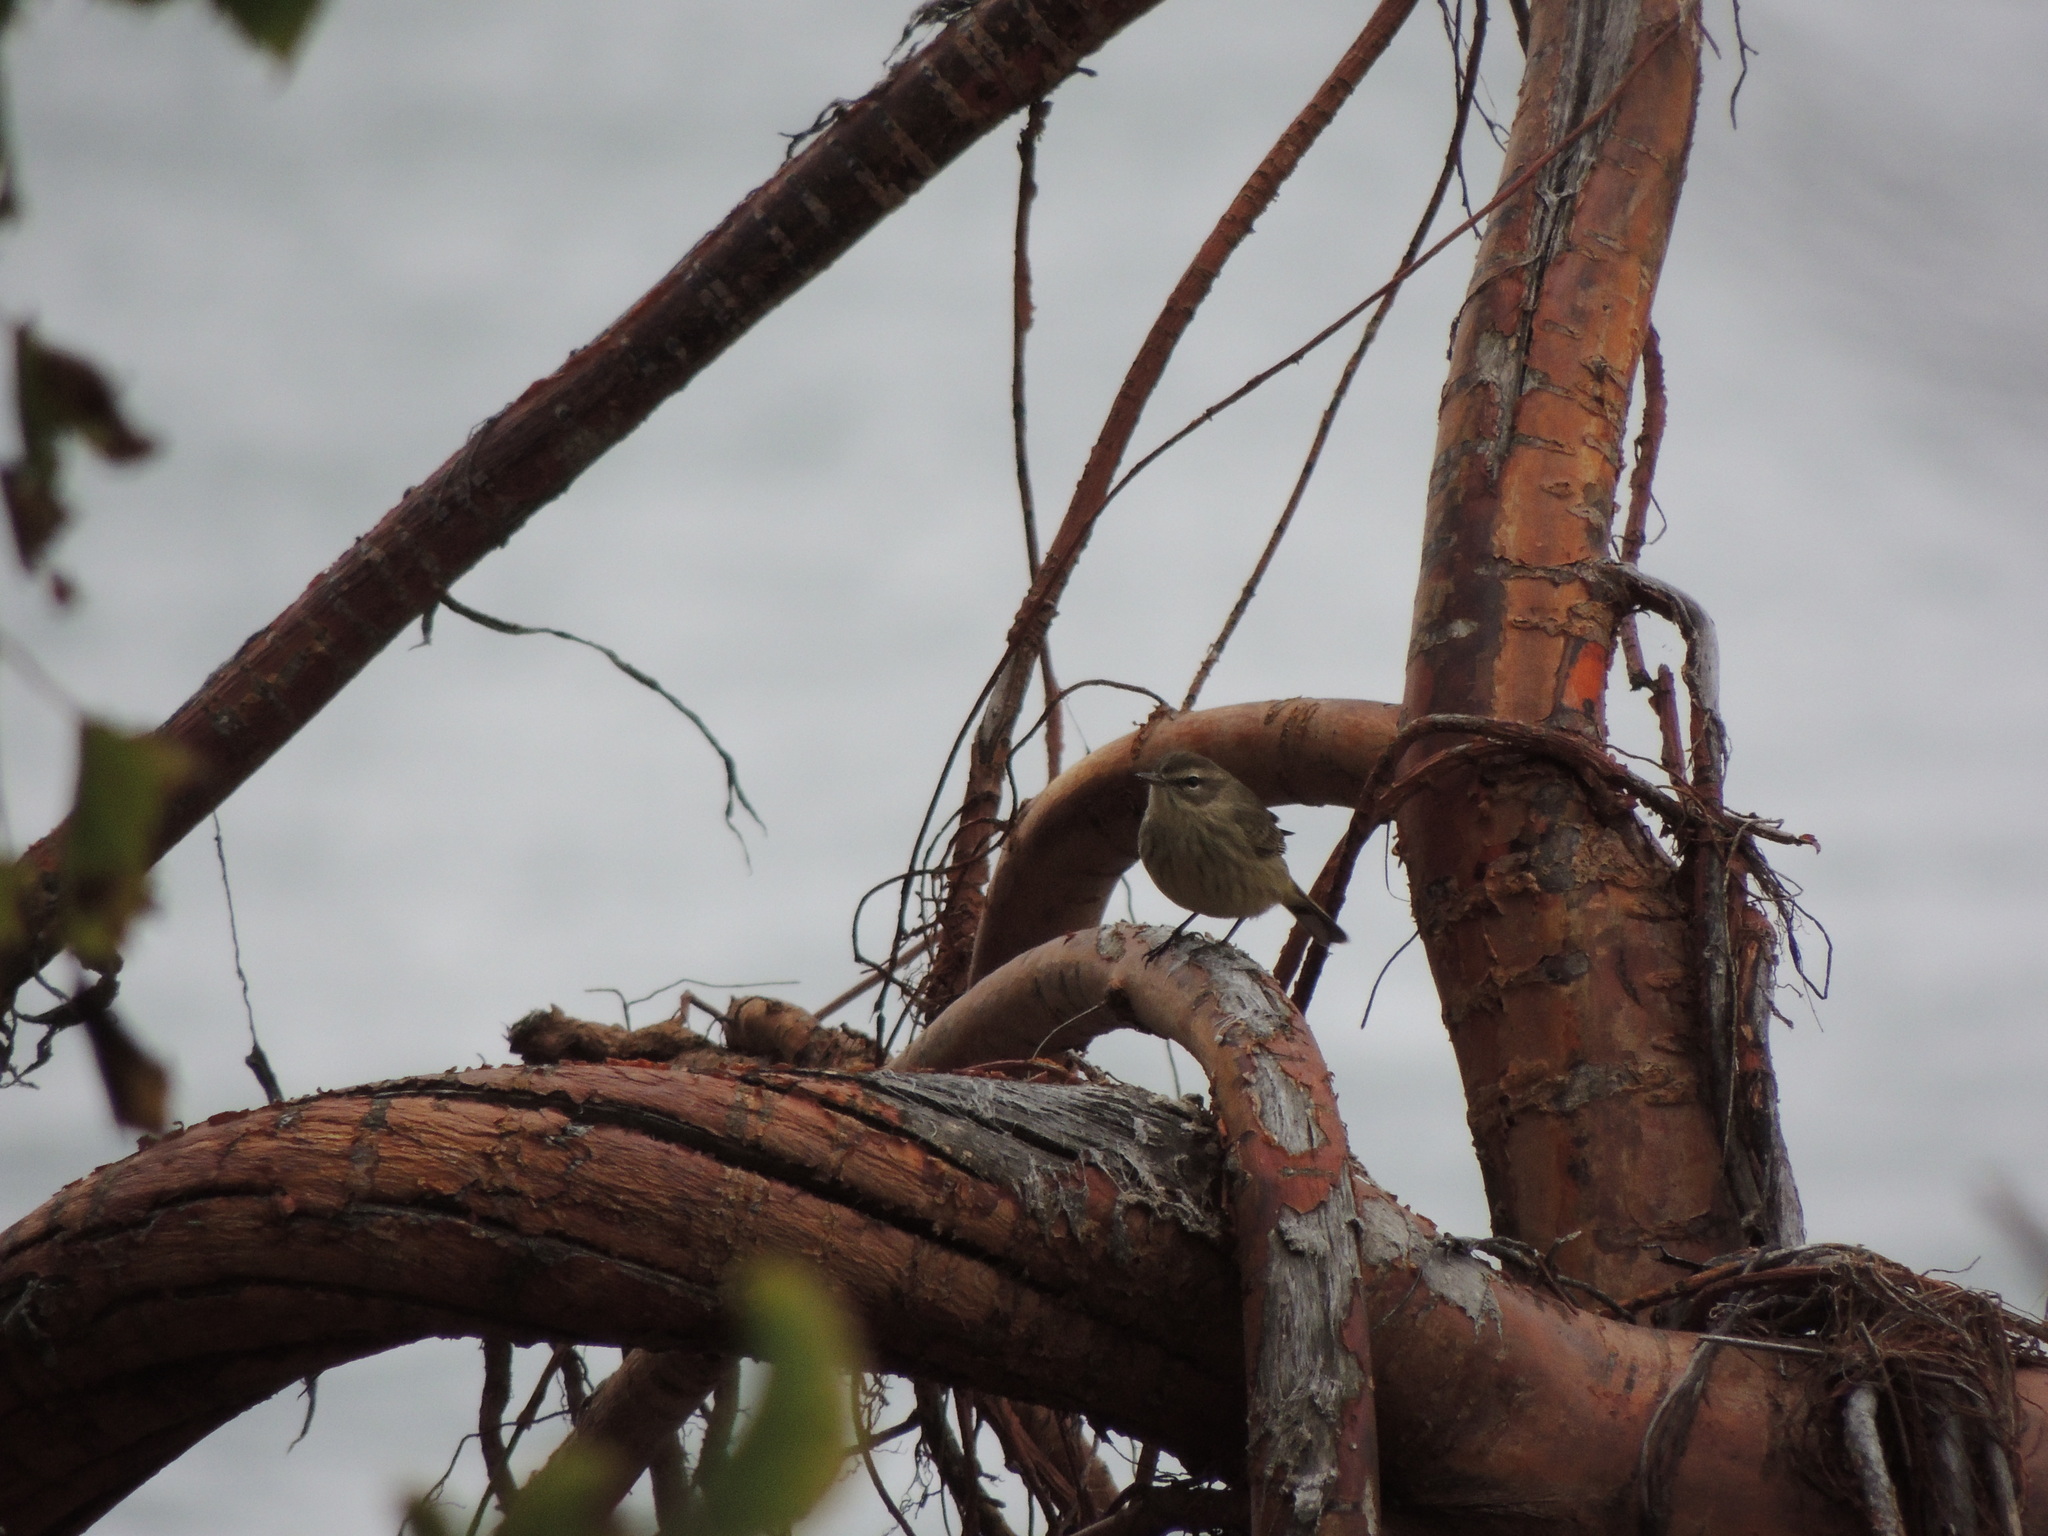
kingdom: Animalia
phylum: Chordata
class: Aves
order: Passeriformes
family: Parulidae
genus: Setophaga
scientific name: Setophaga palmarum
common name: Palm warbler
